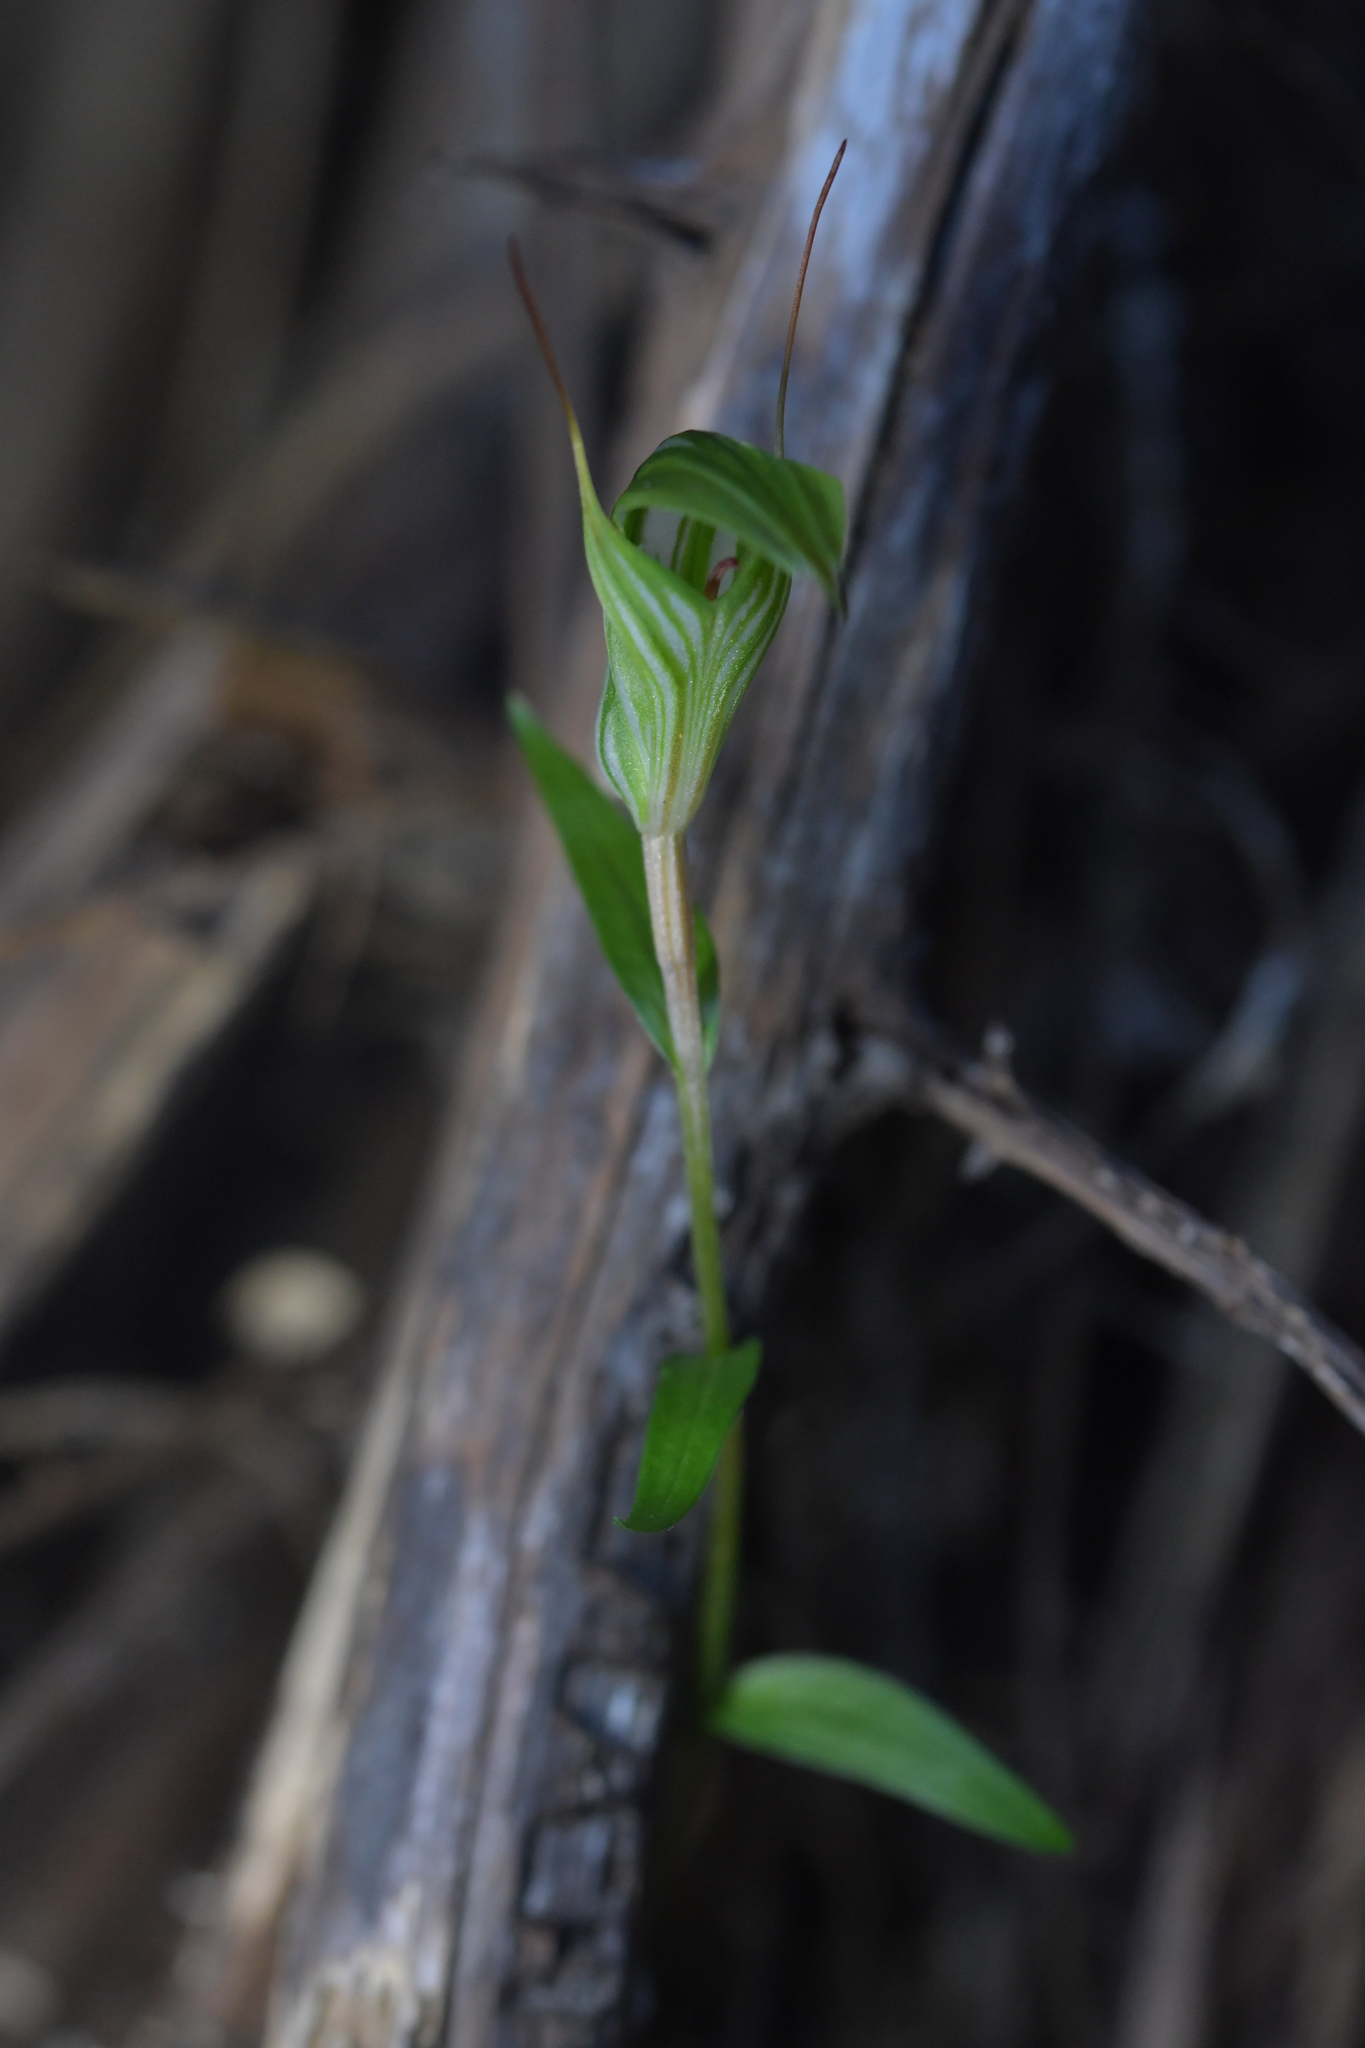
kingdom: Plantae
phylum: Tracheophyta
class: Liliopsida
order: Asparagales
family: Orchidaceae
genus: Pterostylis
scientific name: Pterostylis alobula
